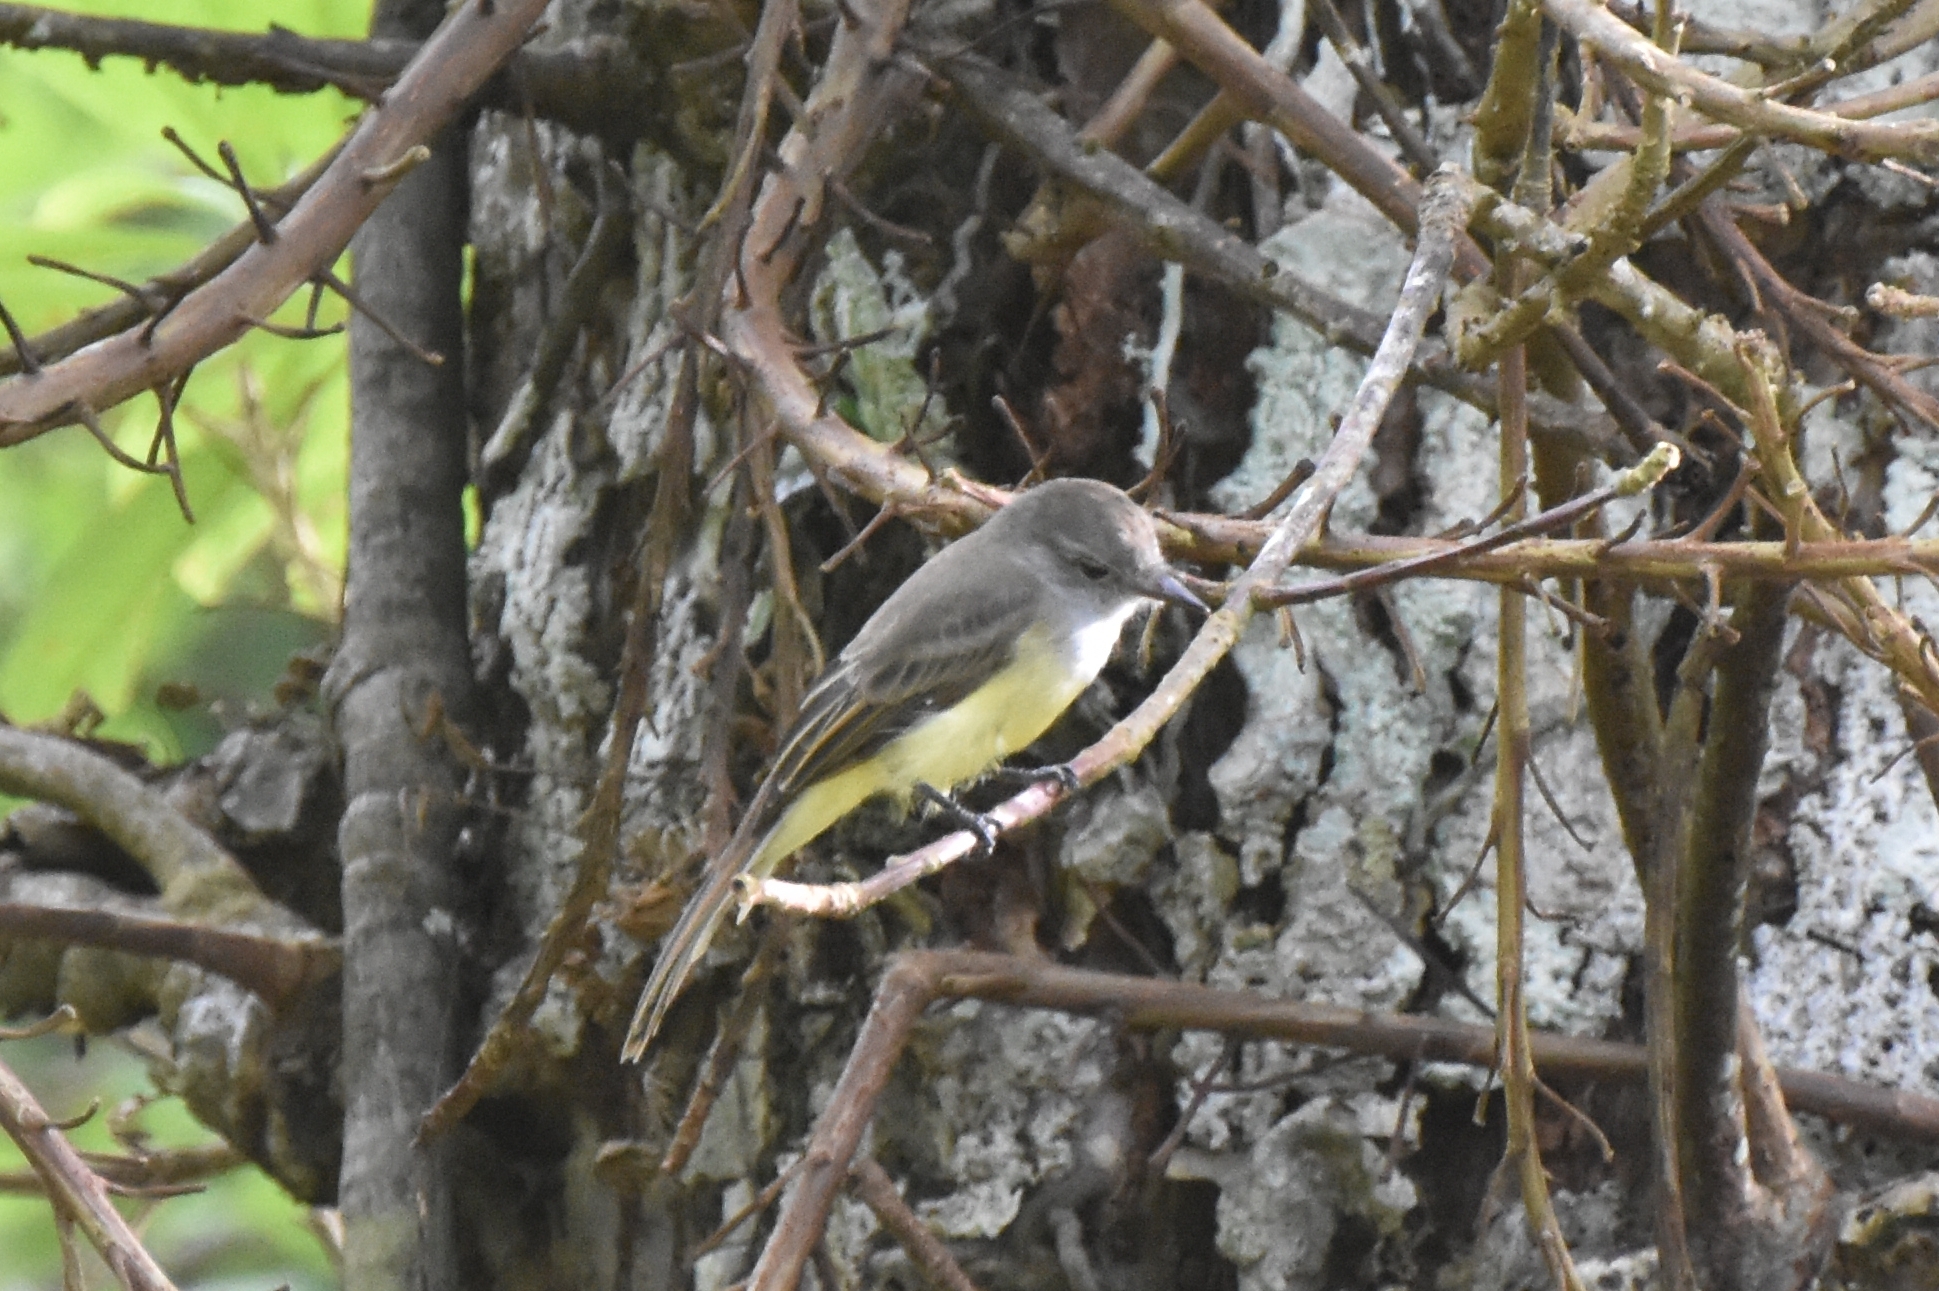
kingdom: Animalia
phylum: Chordata
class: Aves
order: Passeriformes
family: Tyrannidae
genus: Myiarchus
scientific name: Myiarchus panamensis
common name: Panama flycatcher
